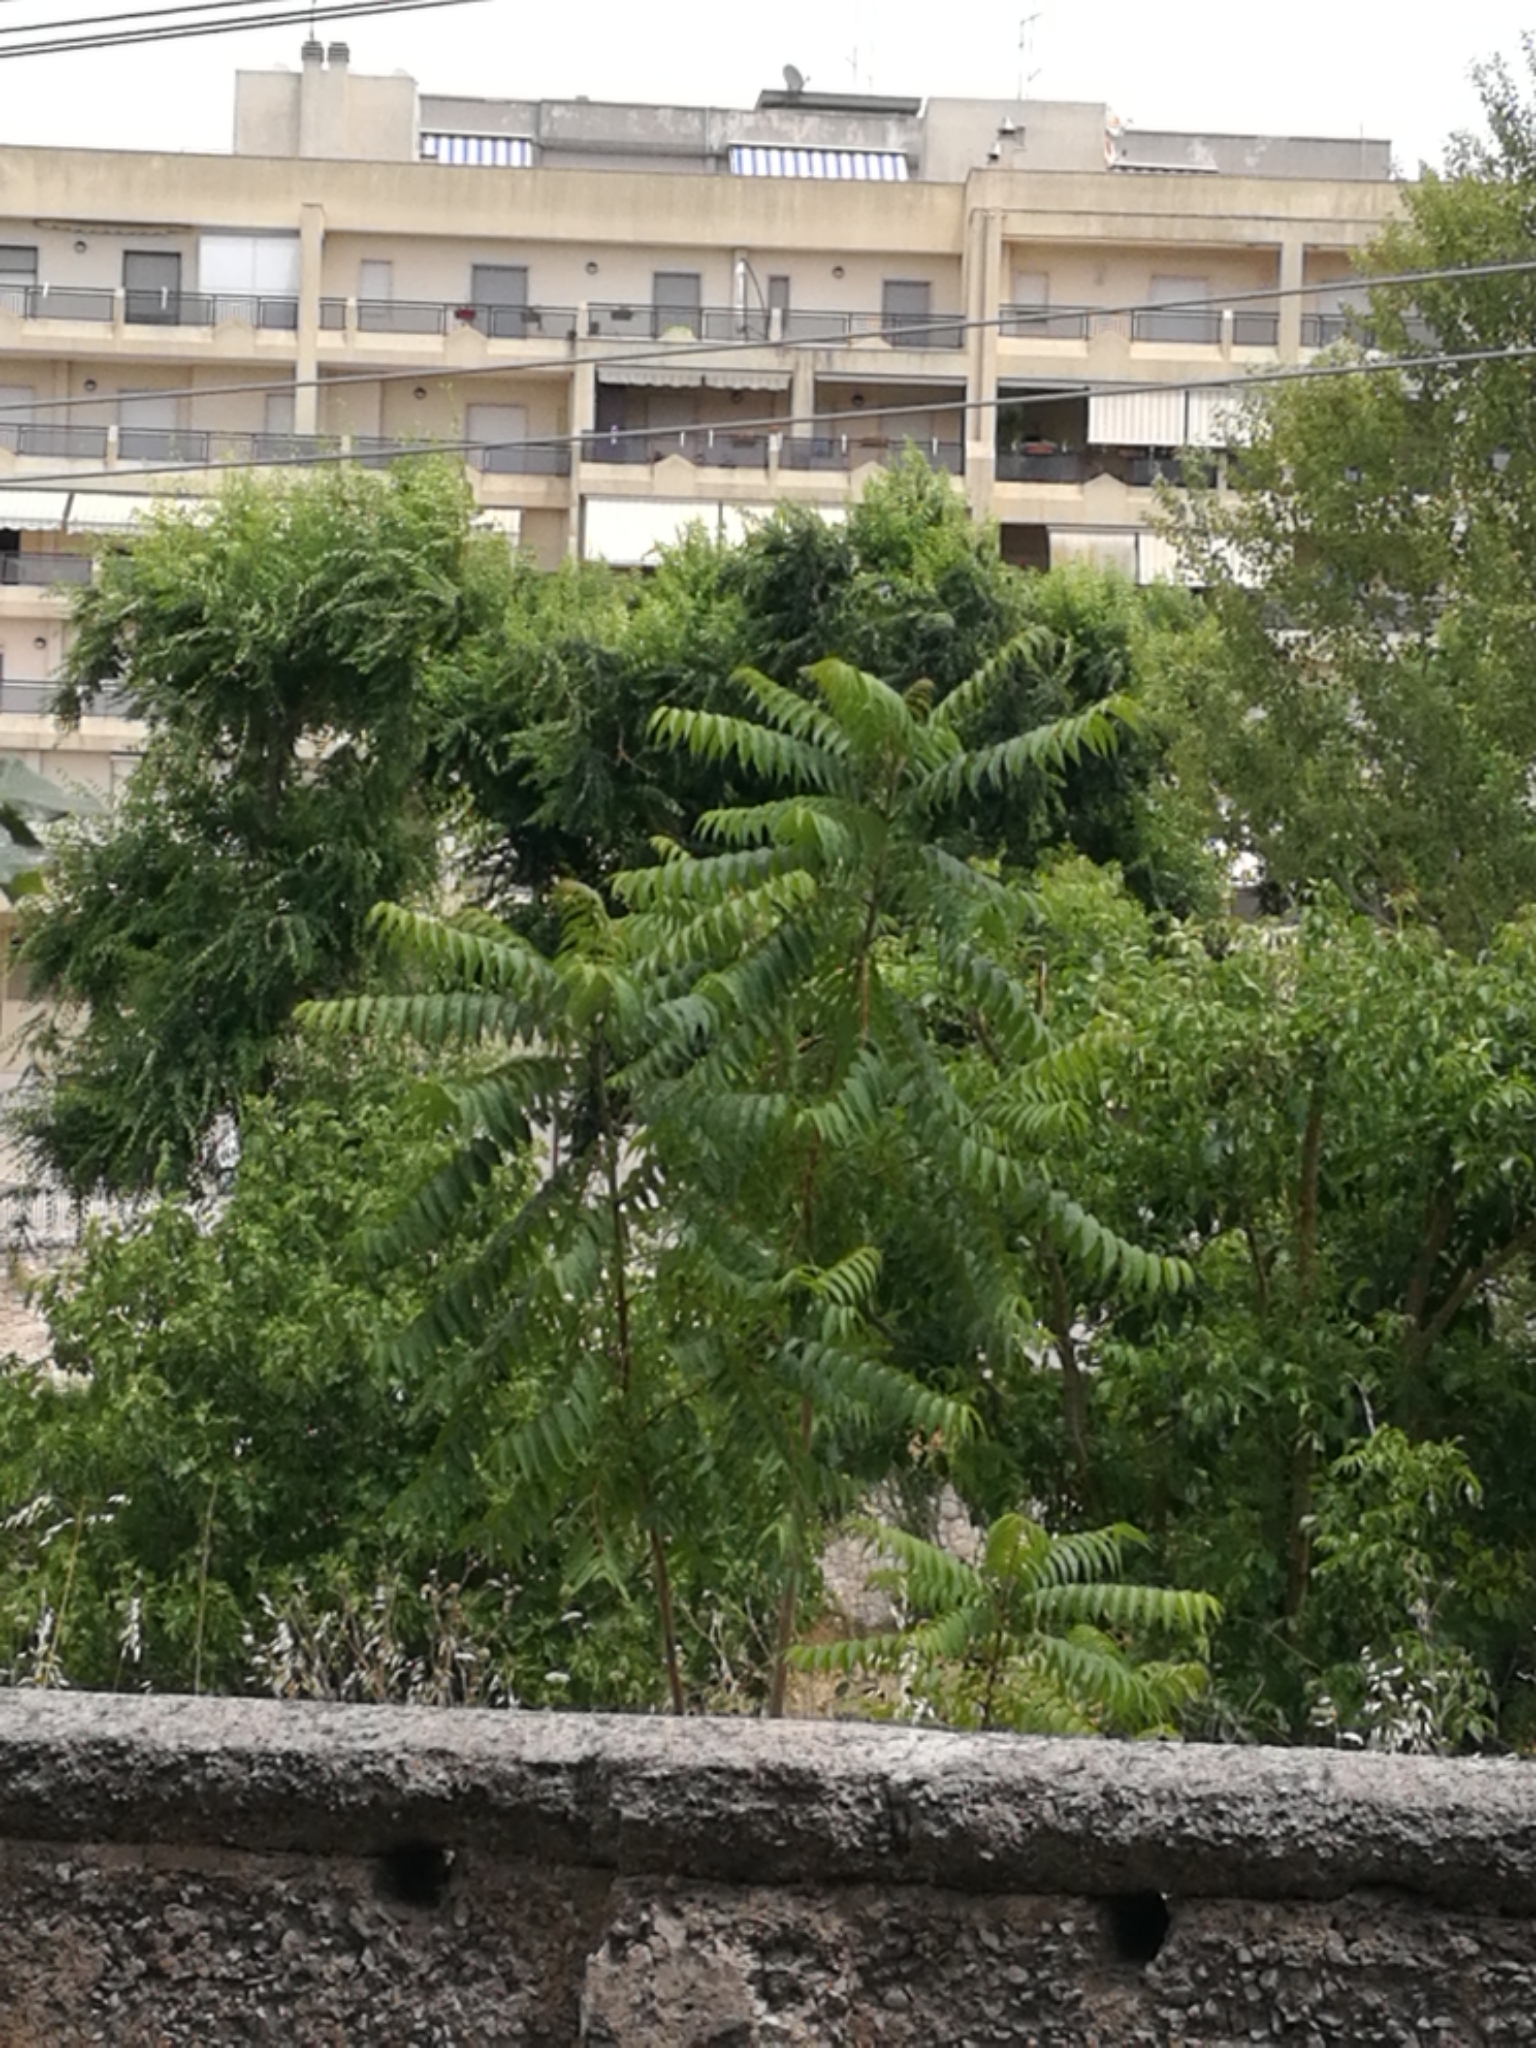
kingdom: Plantae
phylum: Tracheophyta
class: Magnoliopsida
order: Sapindales
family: Simaroubaceae
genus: Ailanthus
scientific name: Ailanthus altissima
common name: Tree-of-heaven
